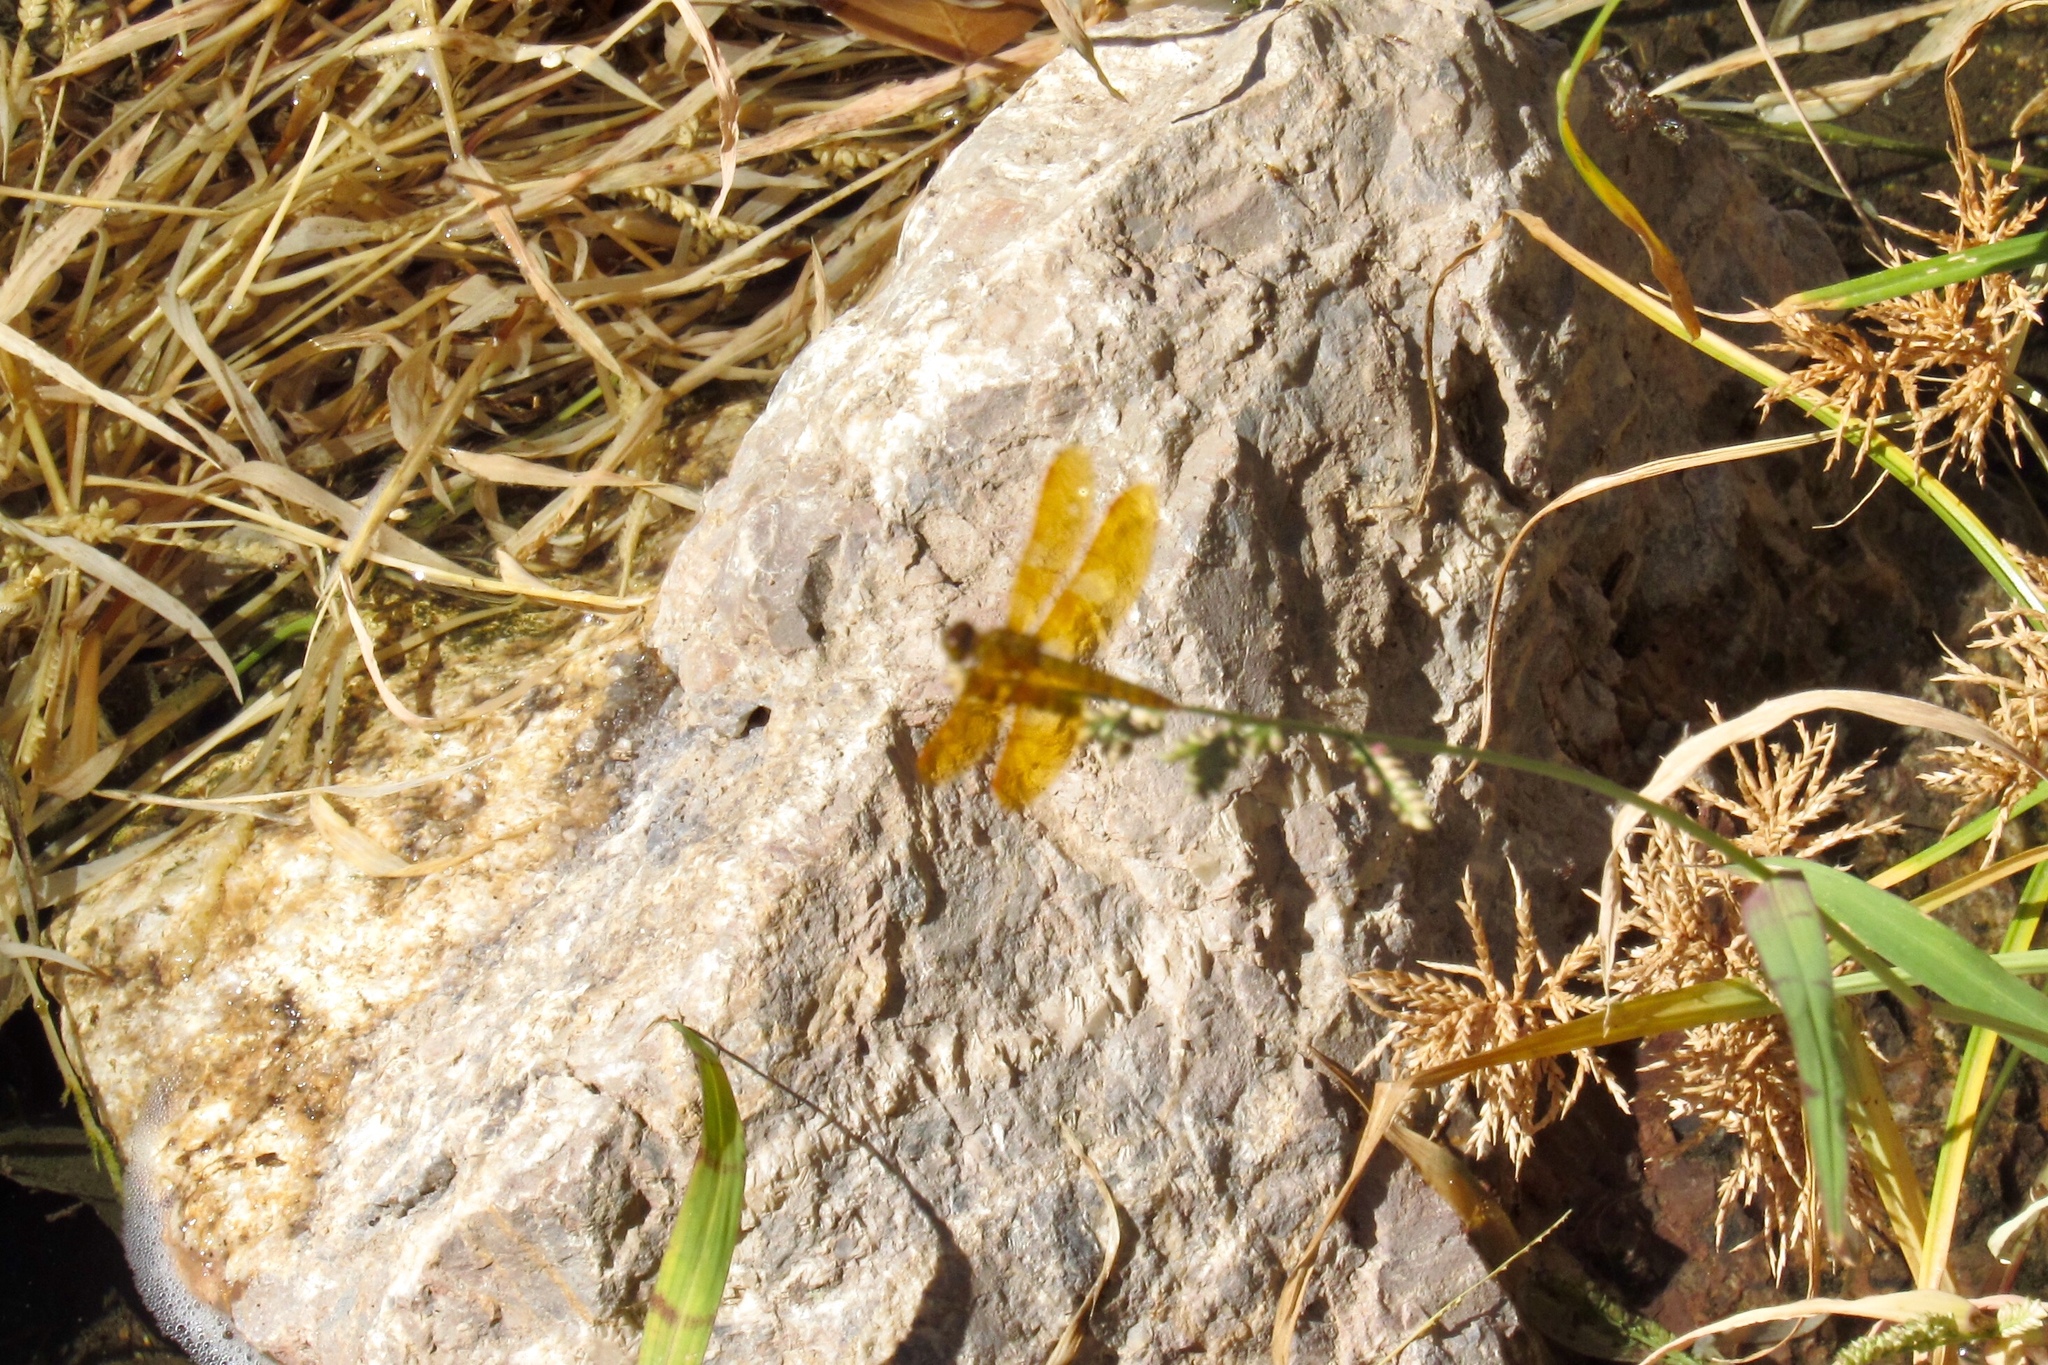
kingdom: Animalia
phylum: Arthropoda
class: Insecta
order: Odonata
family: Libellulidae
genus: Perithemis
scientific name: Perithemis intensa
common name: Mexican amberwing
